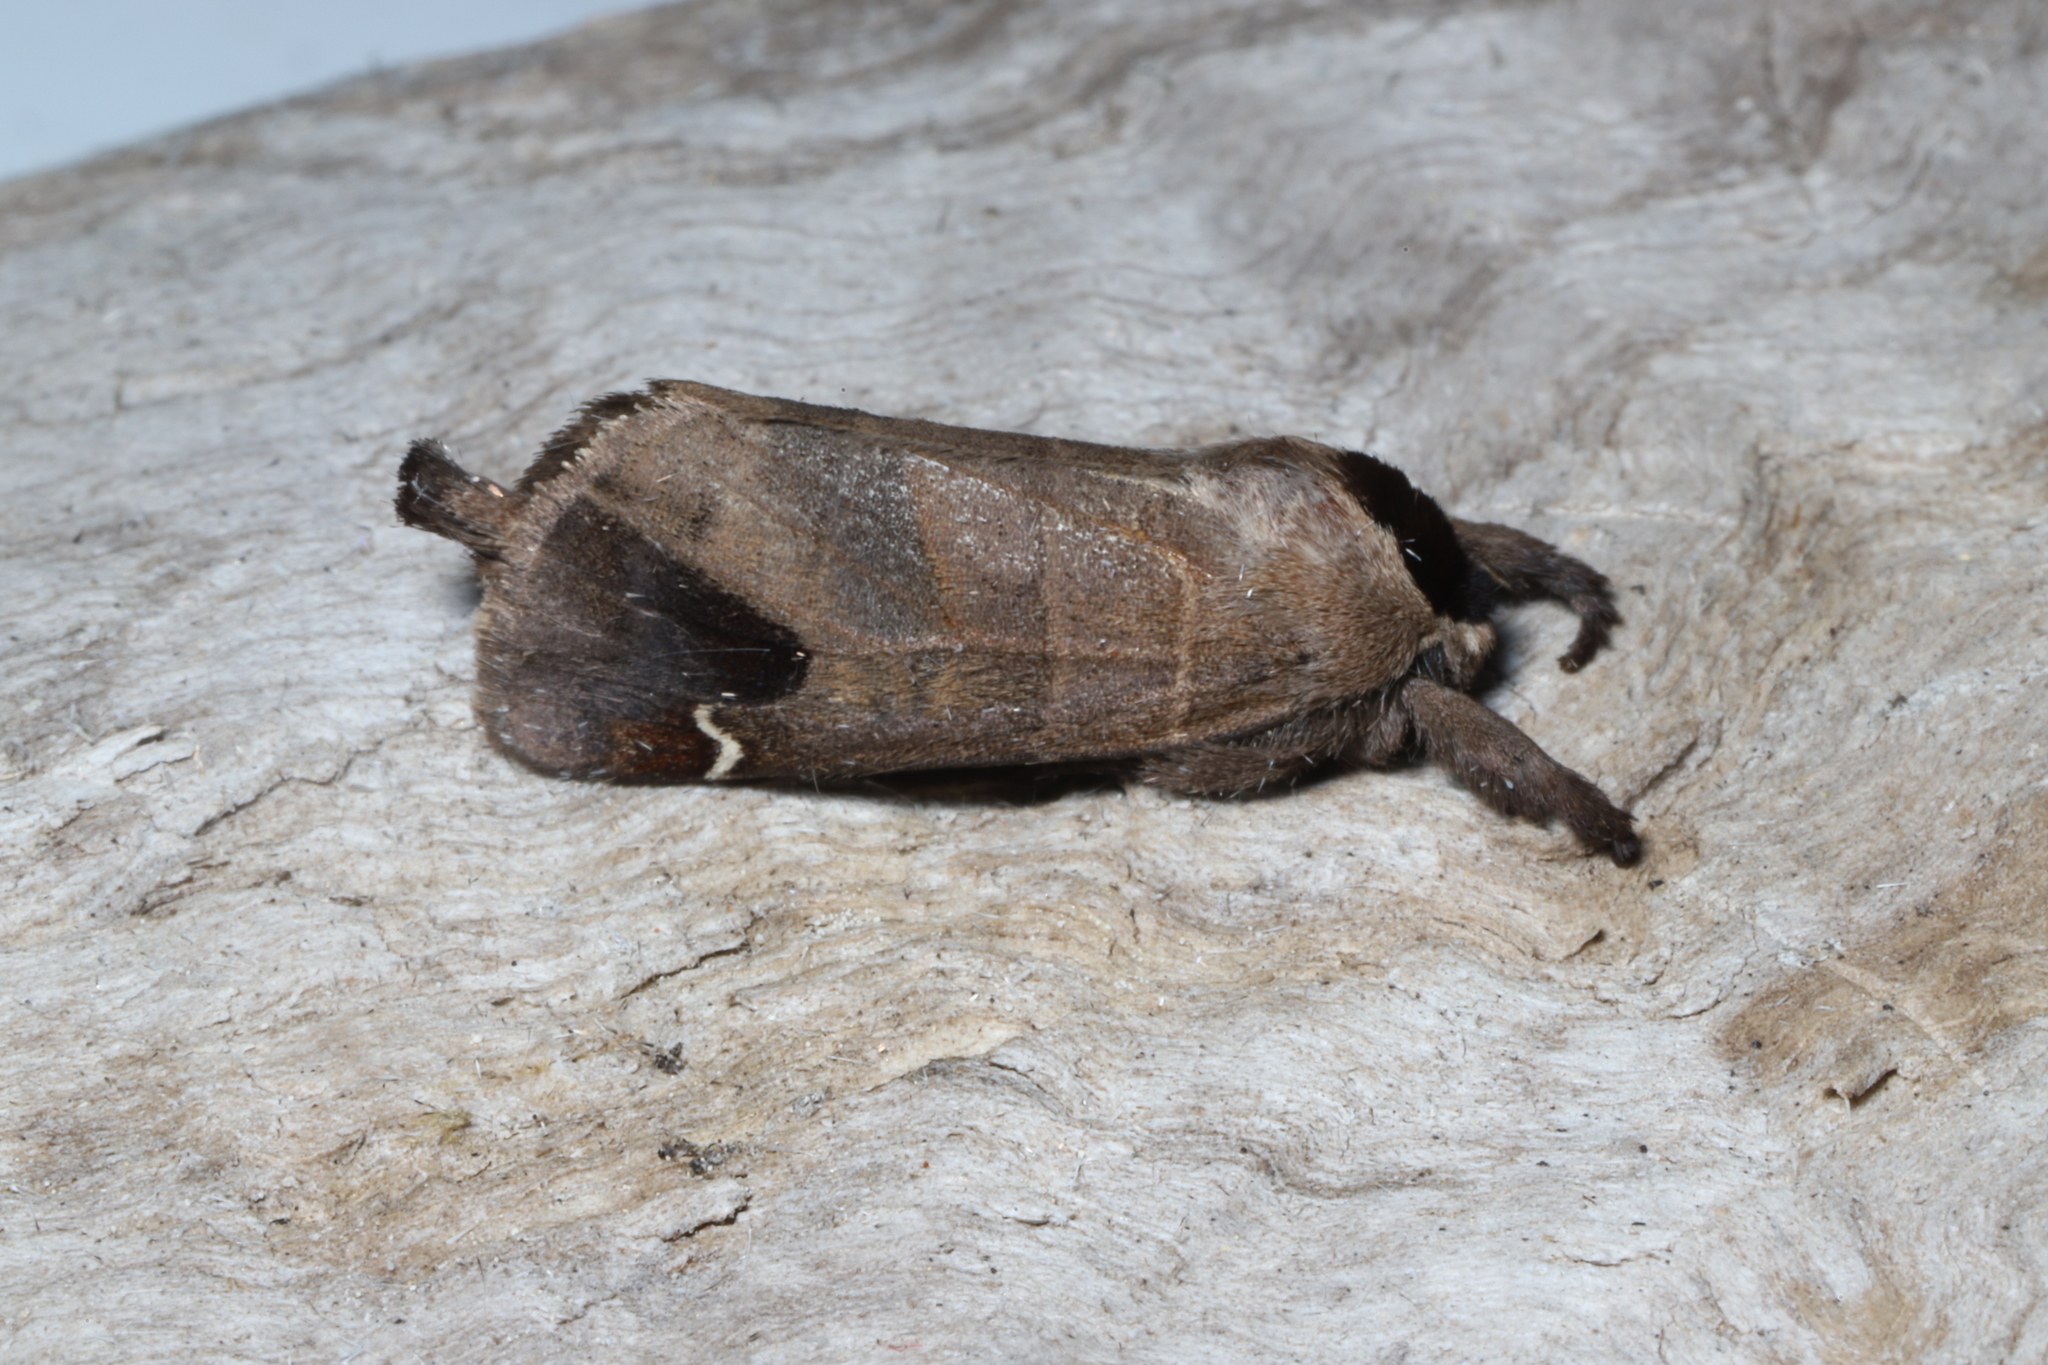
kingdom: Animalia
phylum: Arthropoda
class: Insecta
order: Lepidoptera
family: Notodontidae
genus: Clostera
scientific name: Clostera albosigma
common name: Sigmoid prominent
